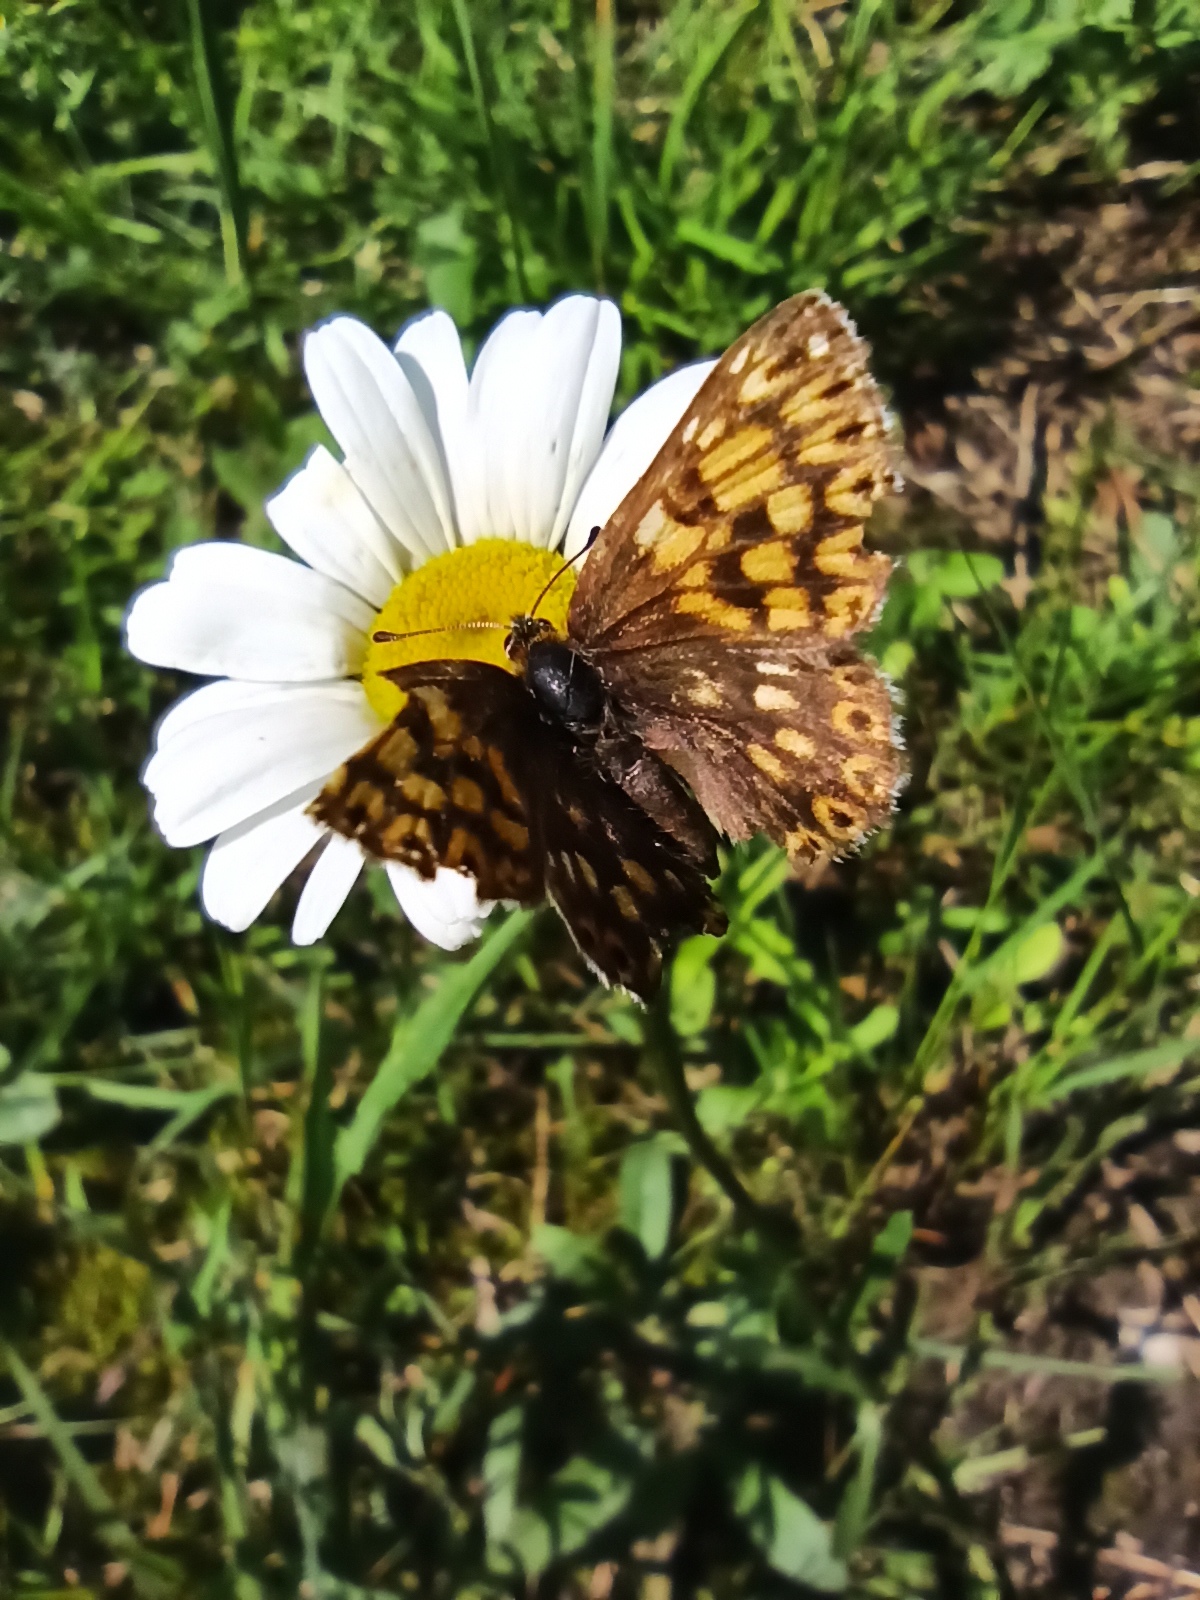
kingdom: Animalia
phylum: Arthropoda
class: Insecta
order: Lepidoptera
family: Riodinidae
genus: Hamearis
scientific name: Hamearis lucina
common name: Duke of burgundy fritillary
